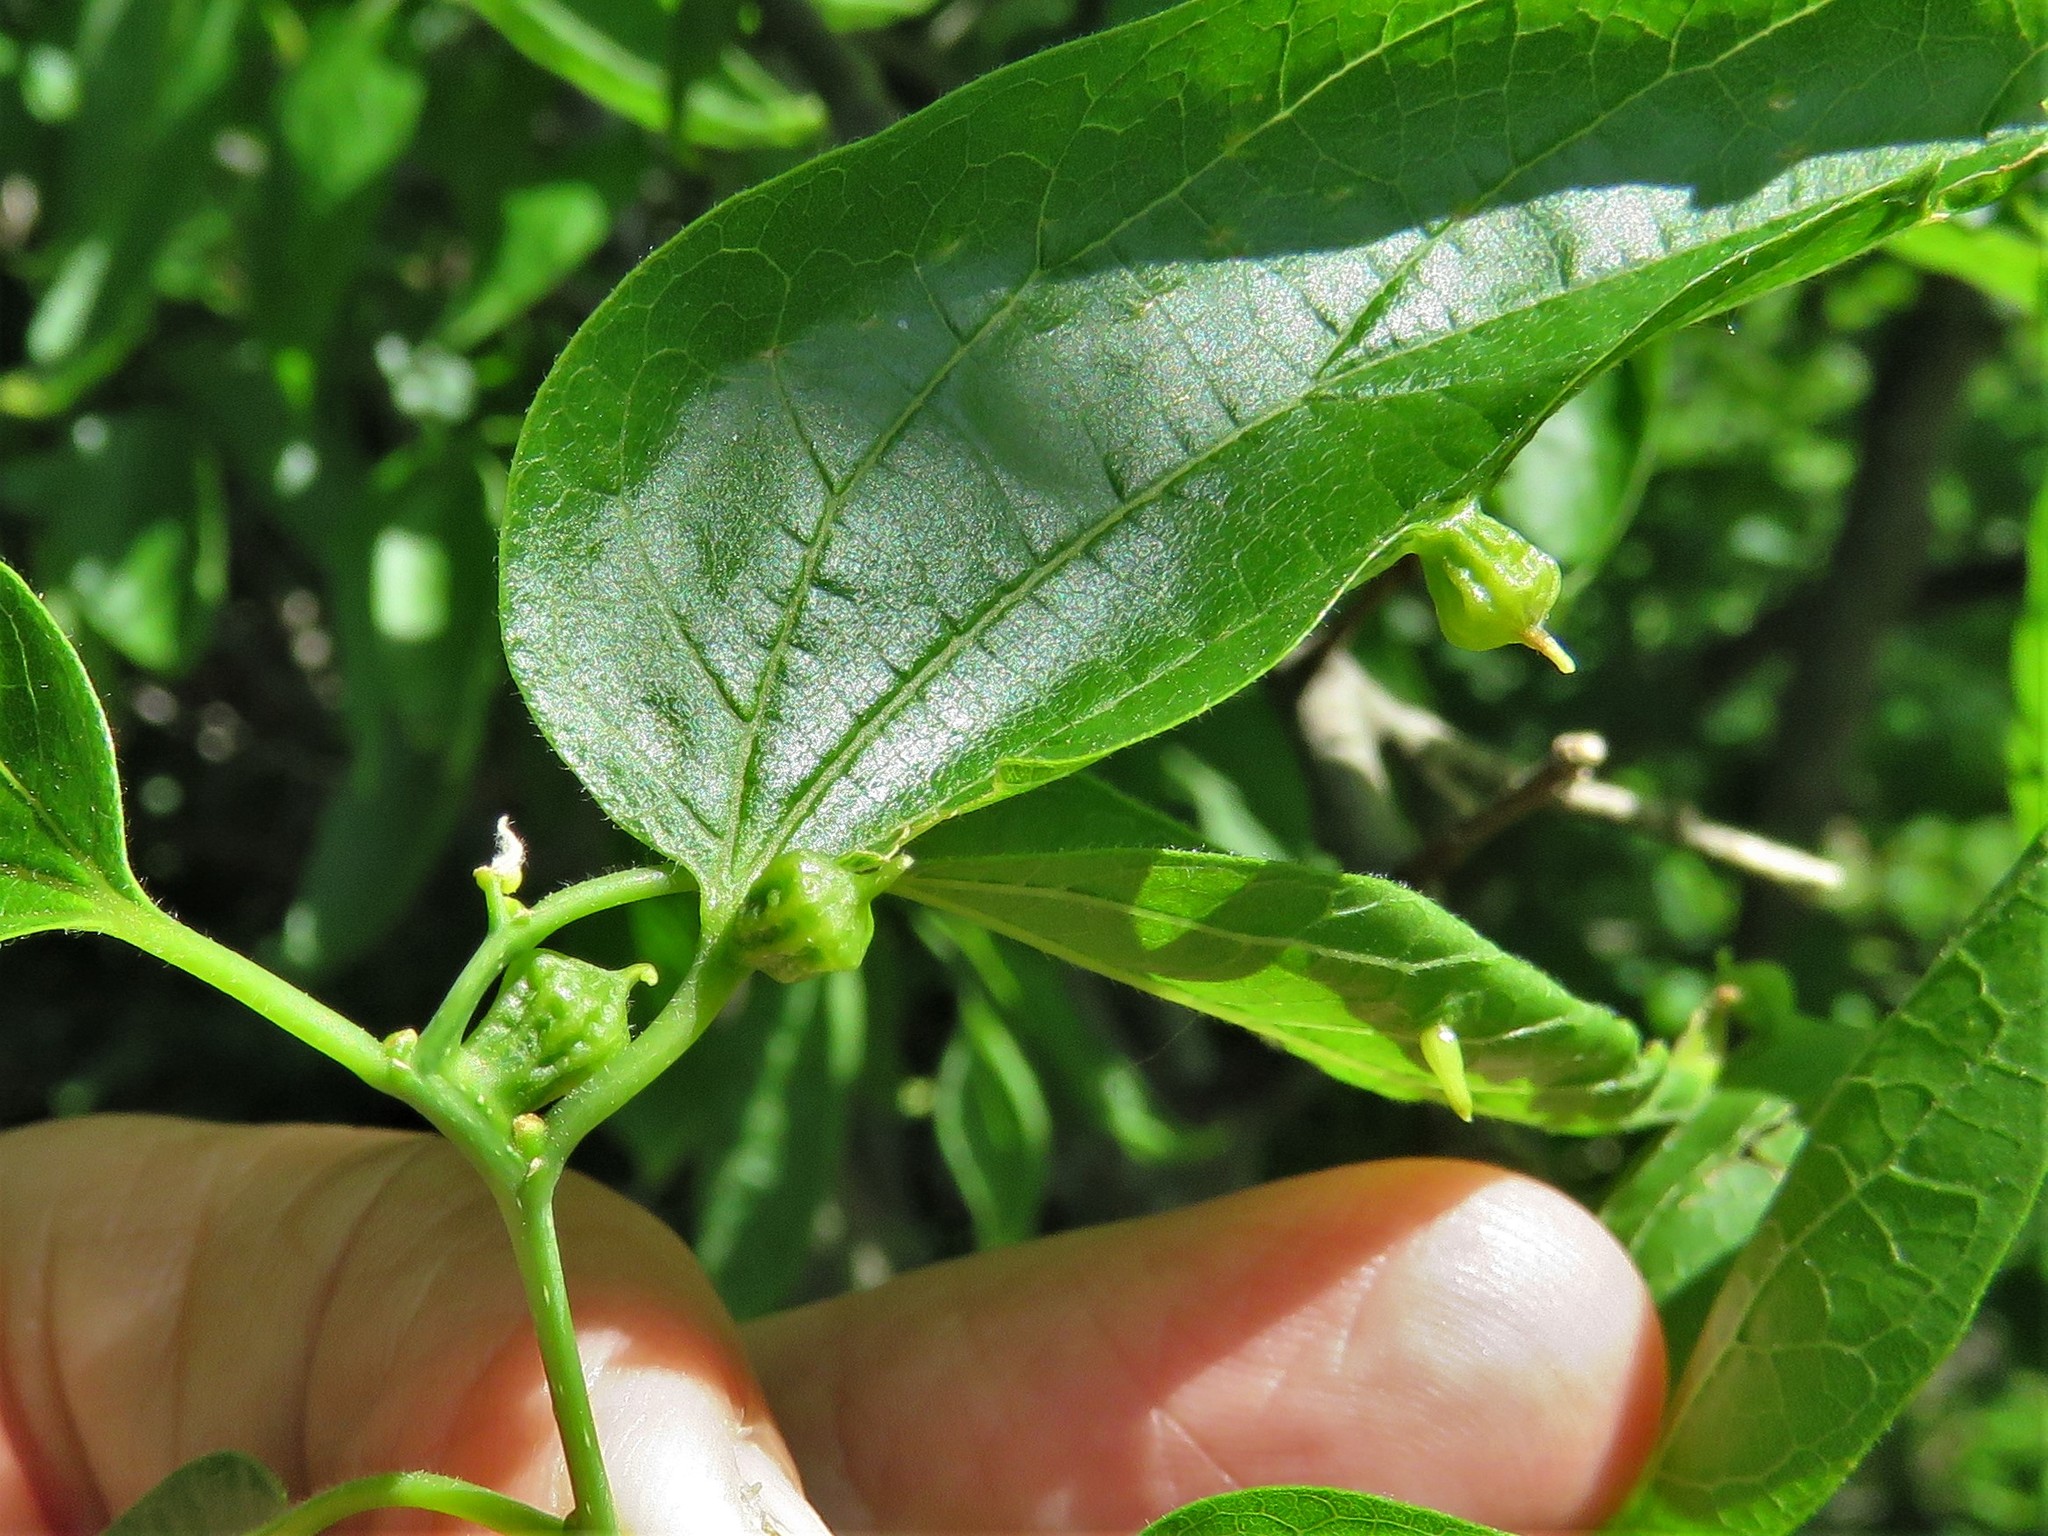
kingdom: Animalia
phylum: Arthropoda
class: Insecta
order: Diptera
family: Cecidomyiidae
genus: Celticecis
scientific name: Celticecis ramicola
